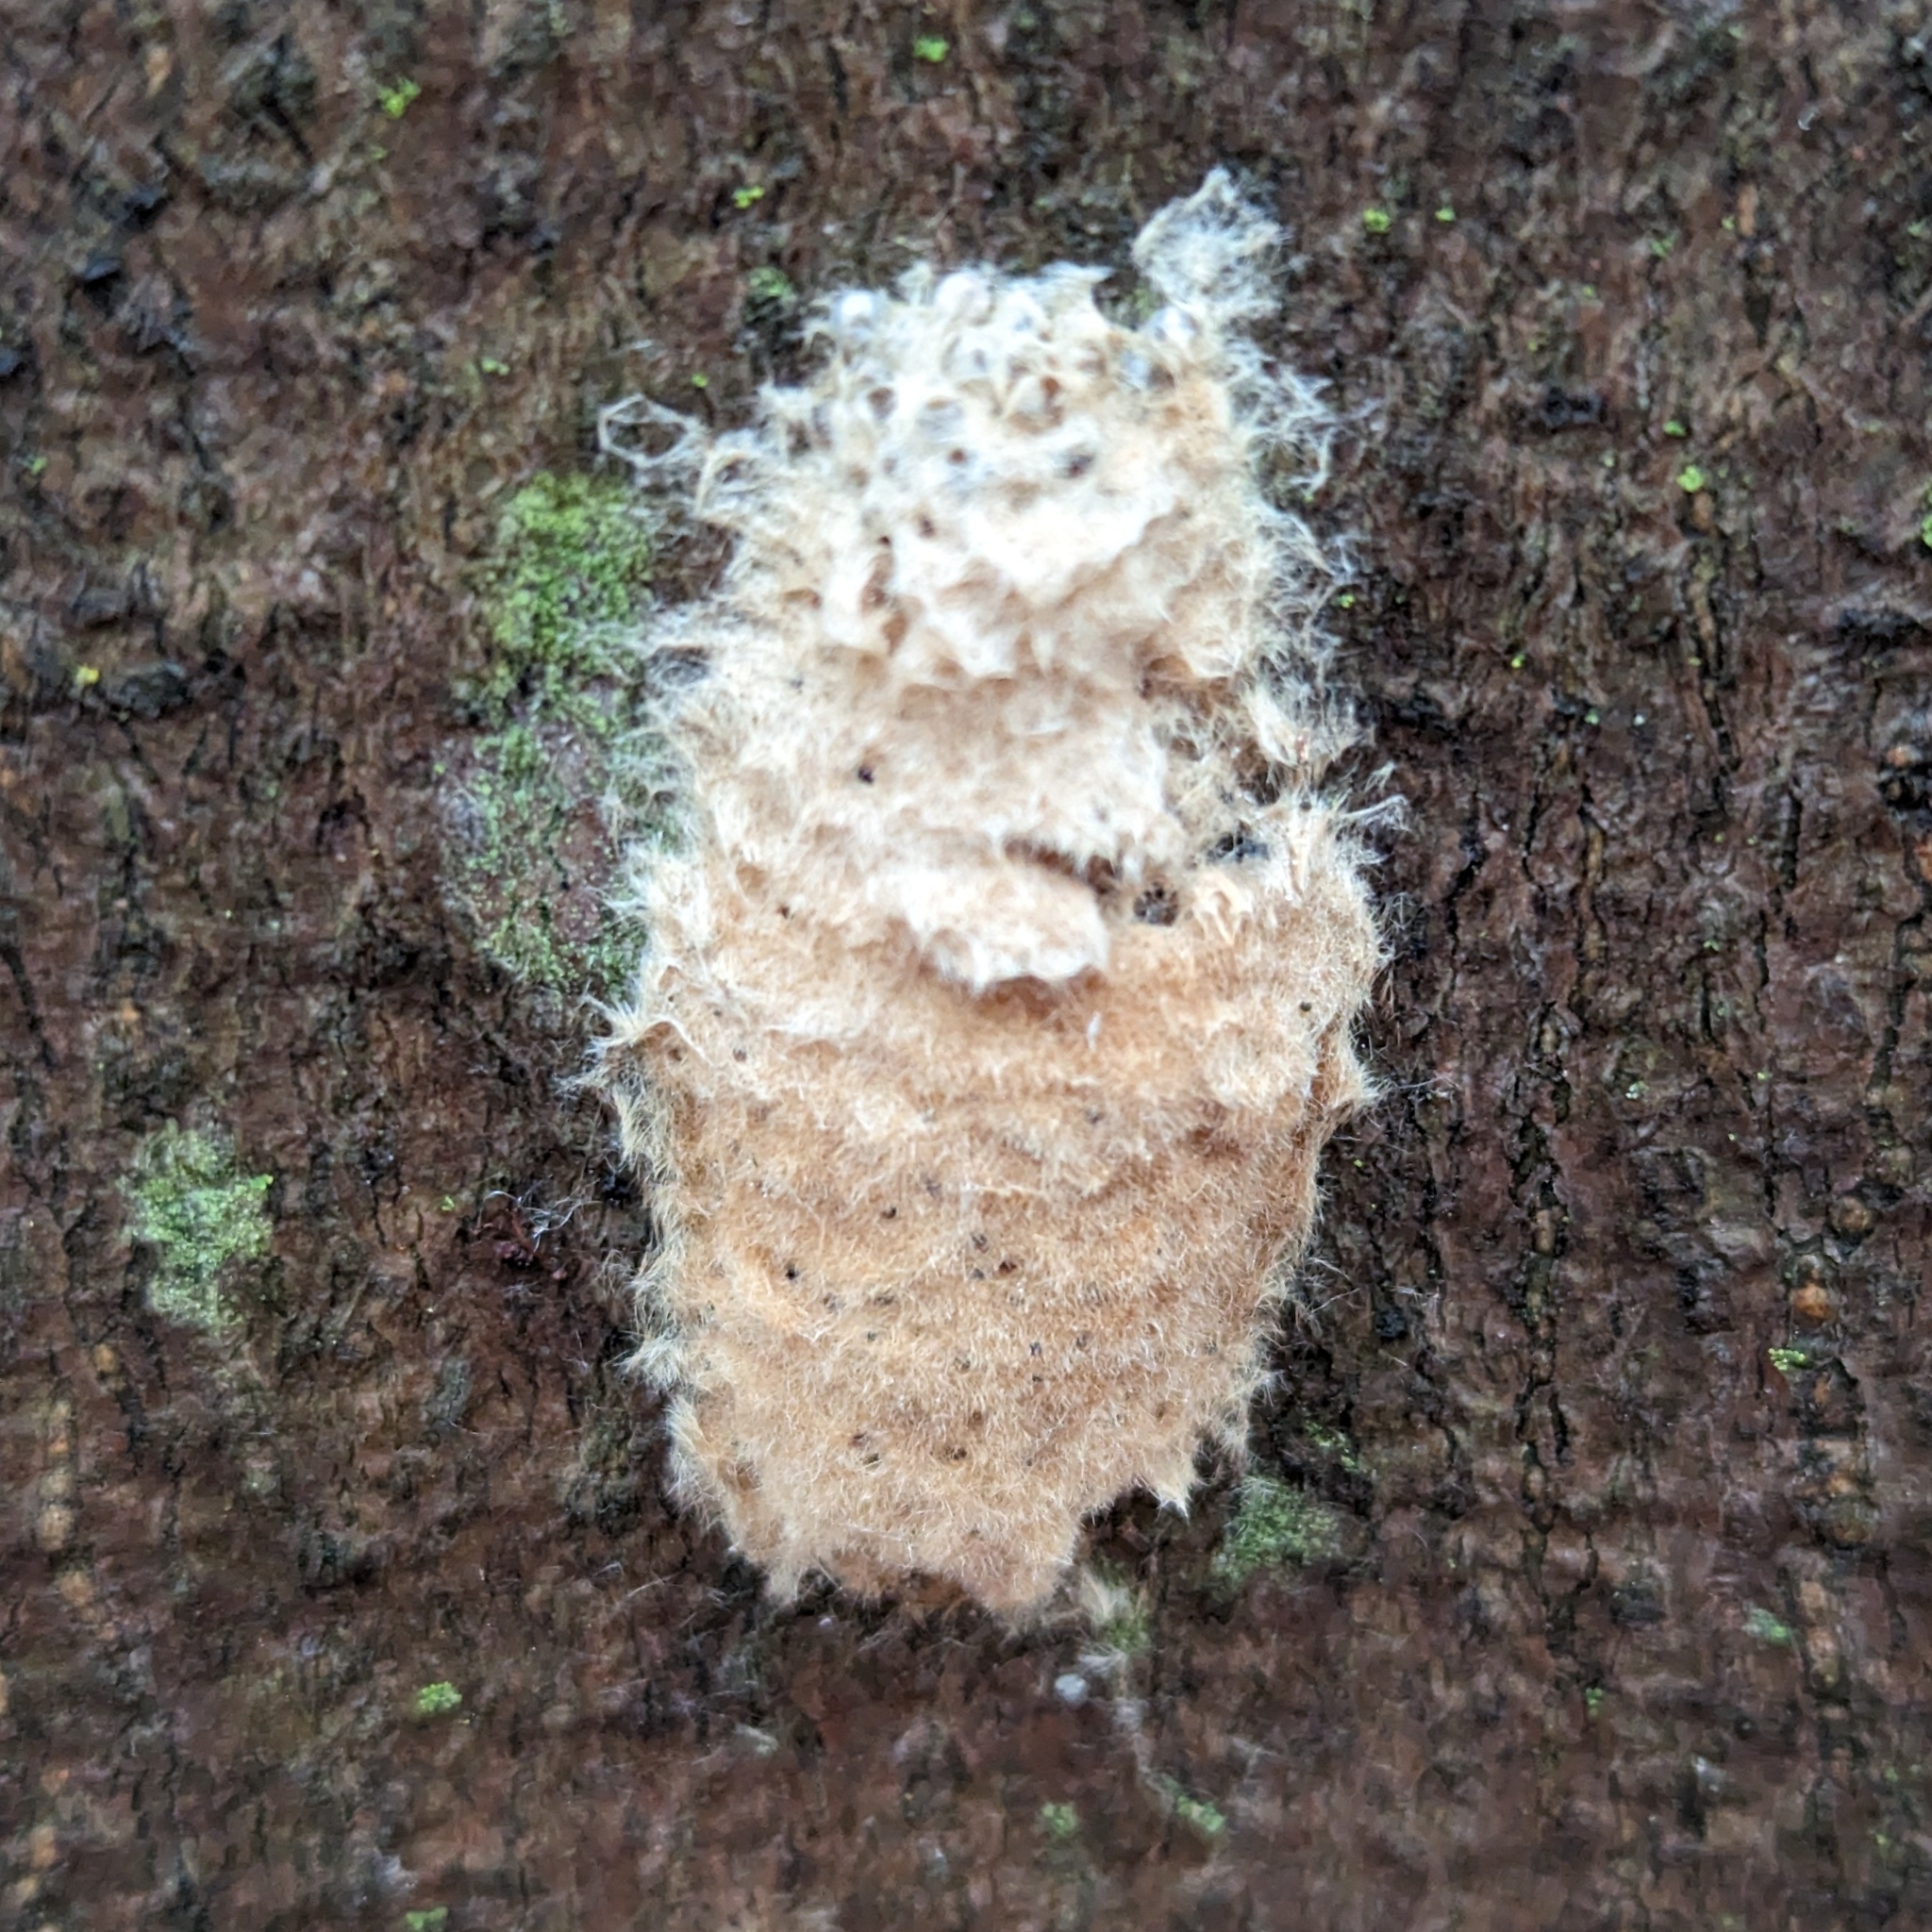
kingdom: Animalia
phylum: Arthropoda
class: Insecta
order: Lepidoptera
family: Erebidae
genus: Lymantria
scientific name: Lymantria dispar
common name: Gypsy moth
